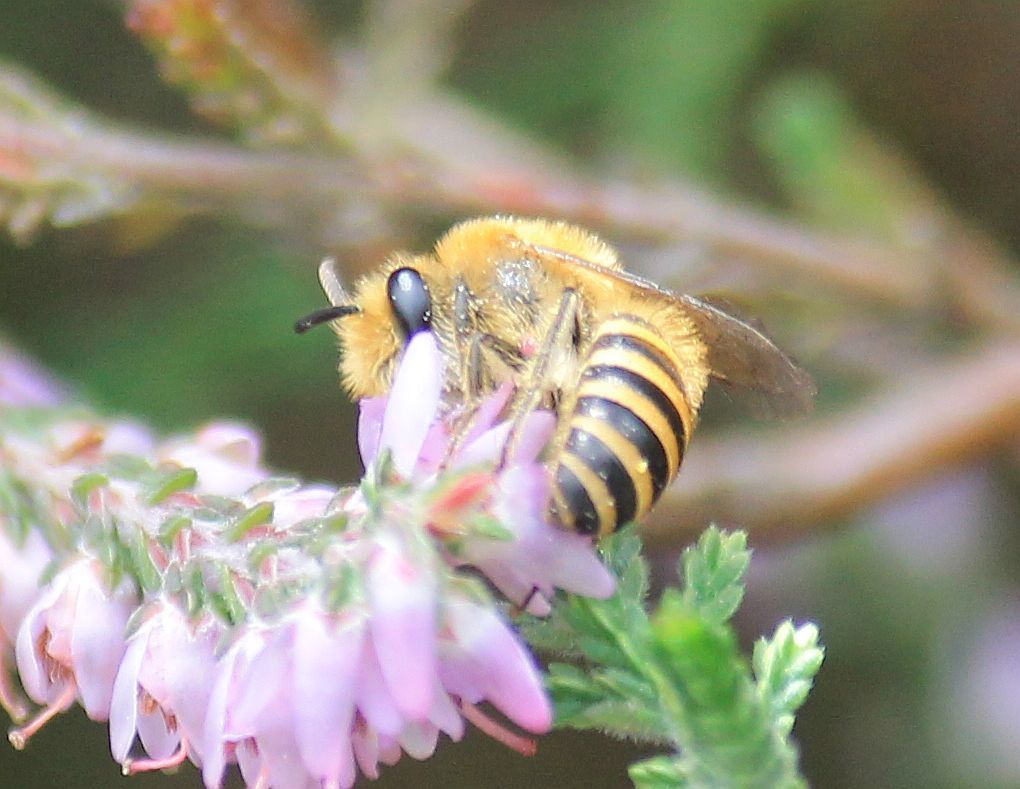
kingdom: Animalia
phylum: Arthropoda
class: Insecta
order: Hymenoptera
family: Colletidae
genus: Colletes
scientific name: Colletes succinctus
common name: Girdled colletes
